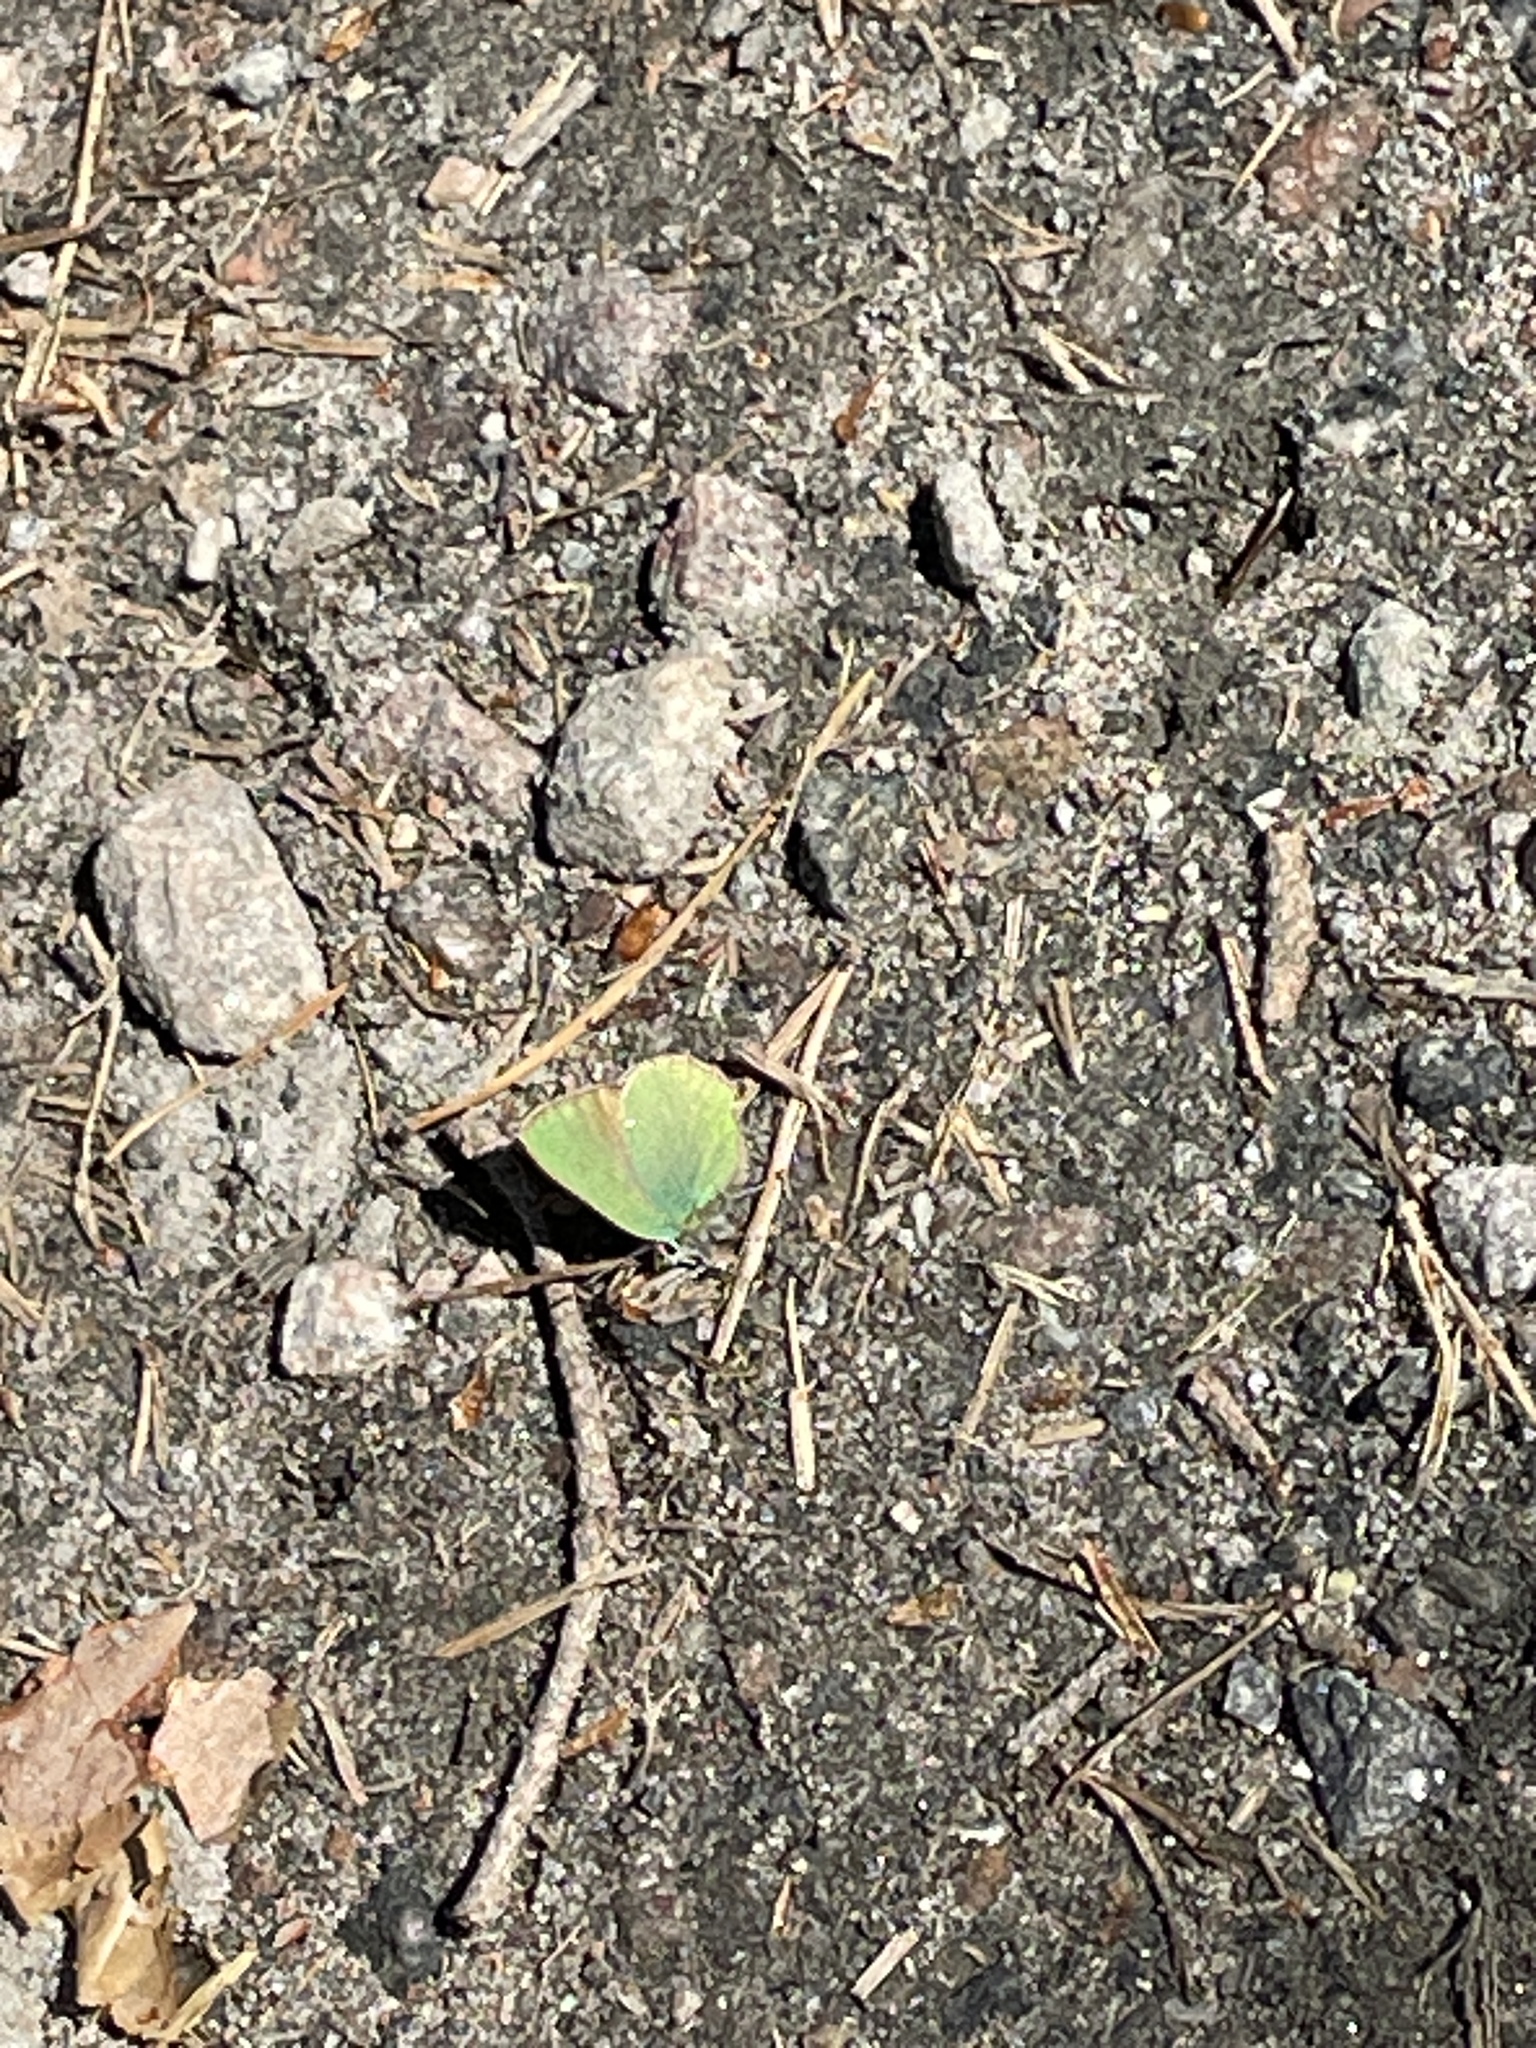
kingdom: Animalia
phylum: Arthropoda
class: Insecta
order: Lepidoptera
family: Lycaenidae
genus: Callophrys
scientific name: Callophrys rubi
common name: Green hairstreak
